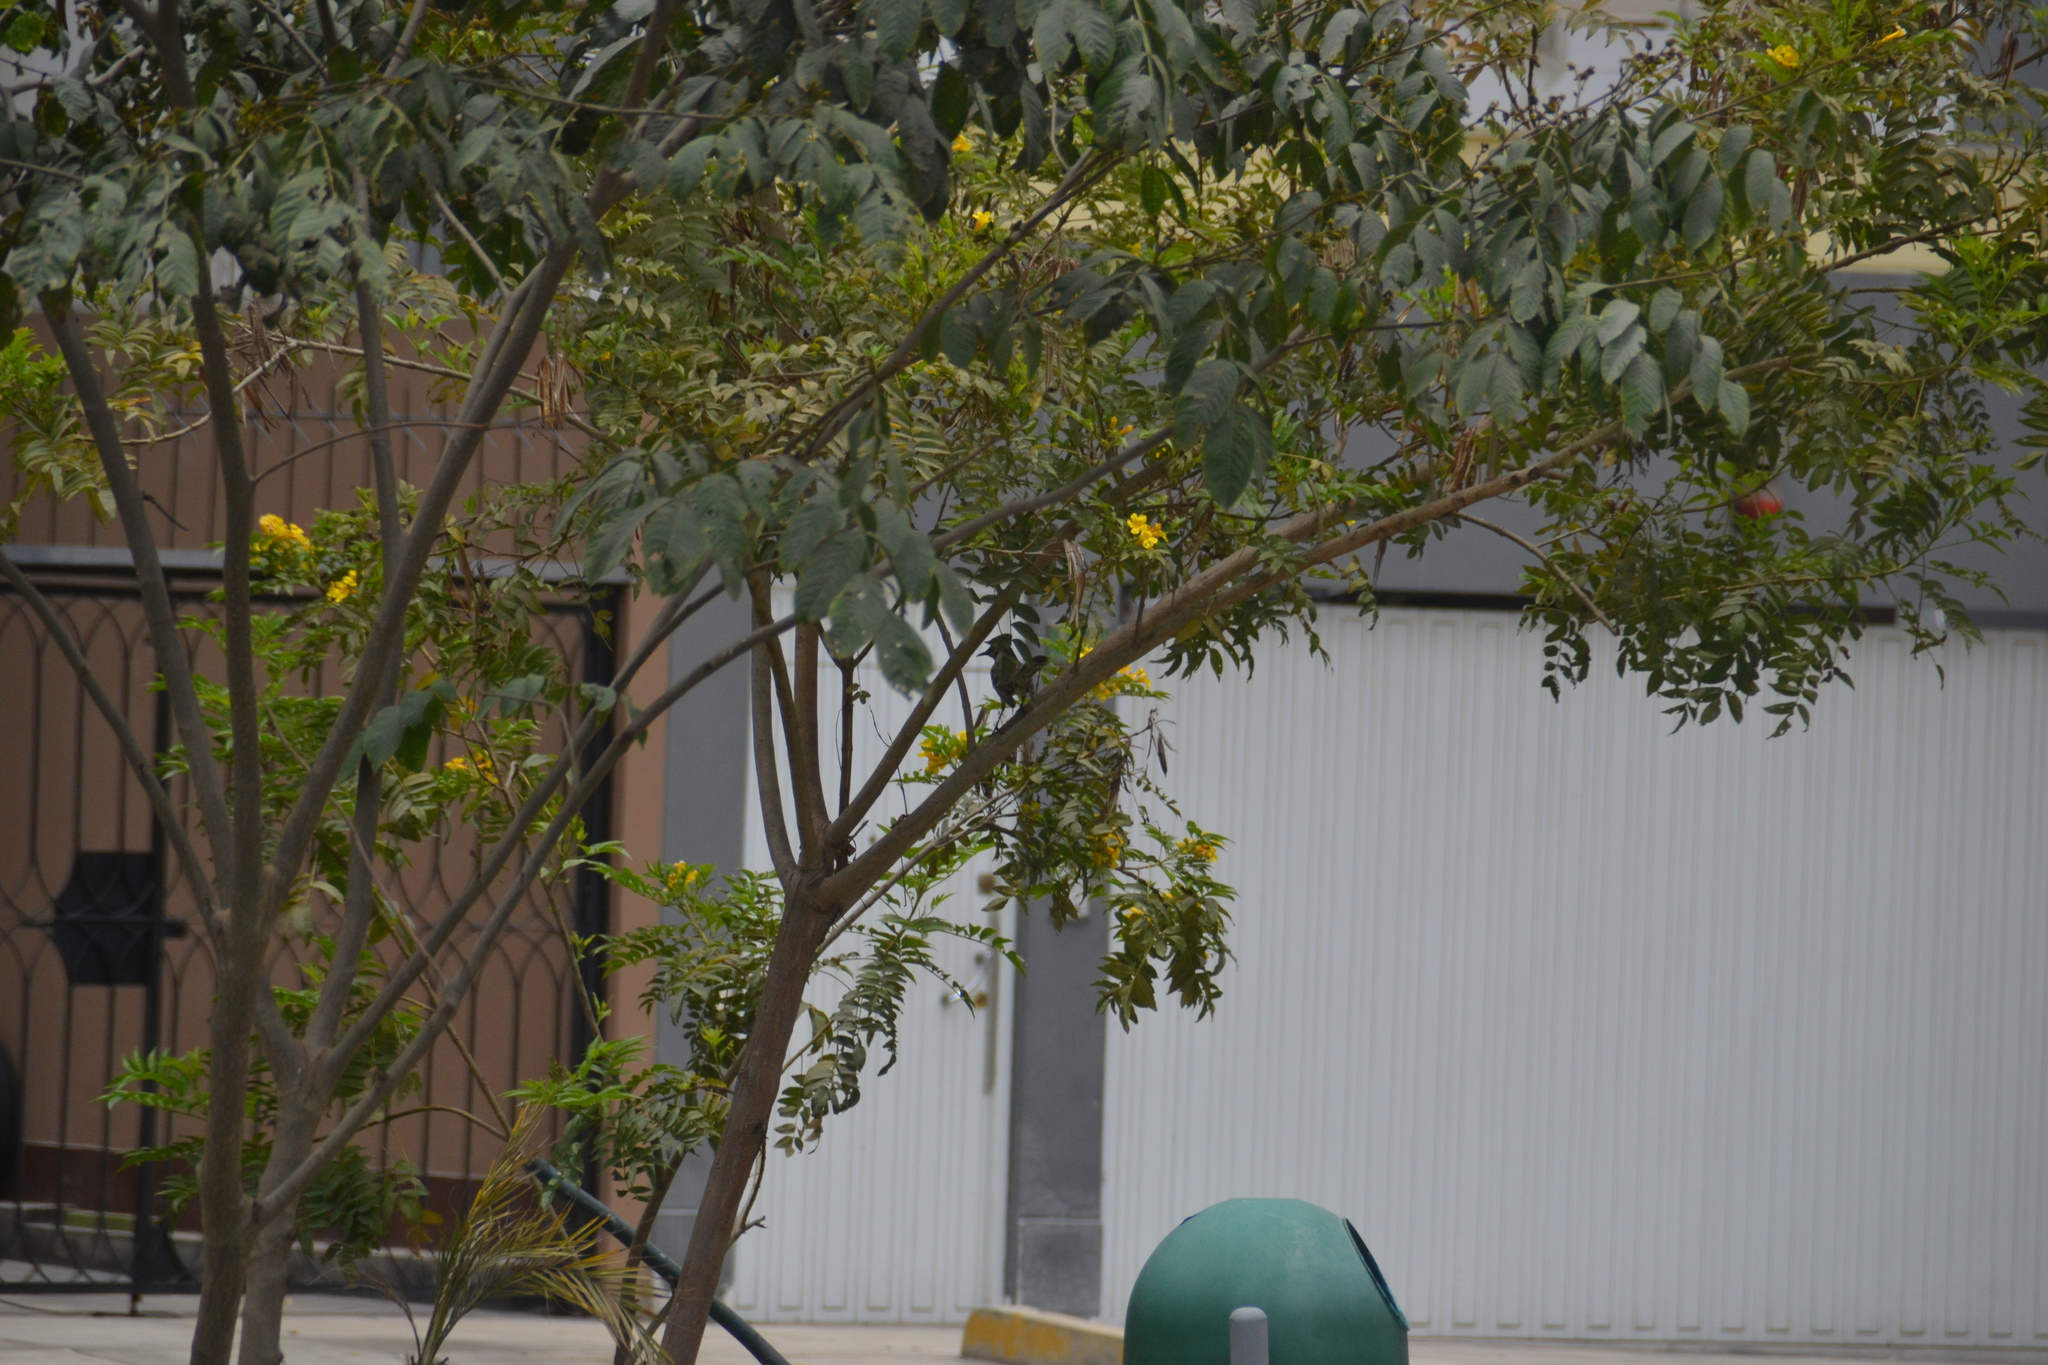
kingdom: Animalia
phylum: Chordata
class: Aves
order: Passeriformes
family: Mimidae
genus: Mimus
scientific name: Mimus longicaudatus
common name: Long-tailed mockingbird
